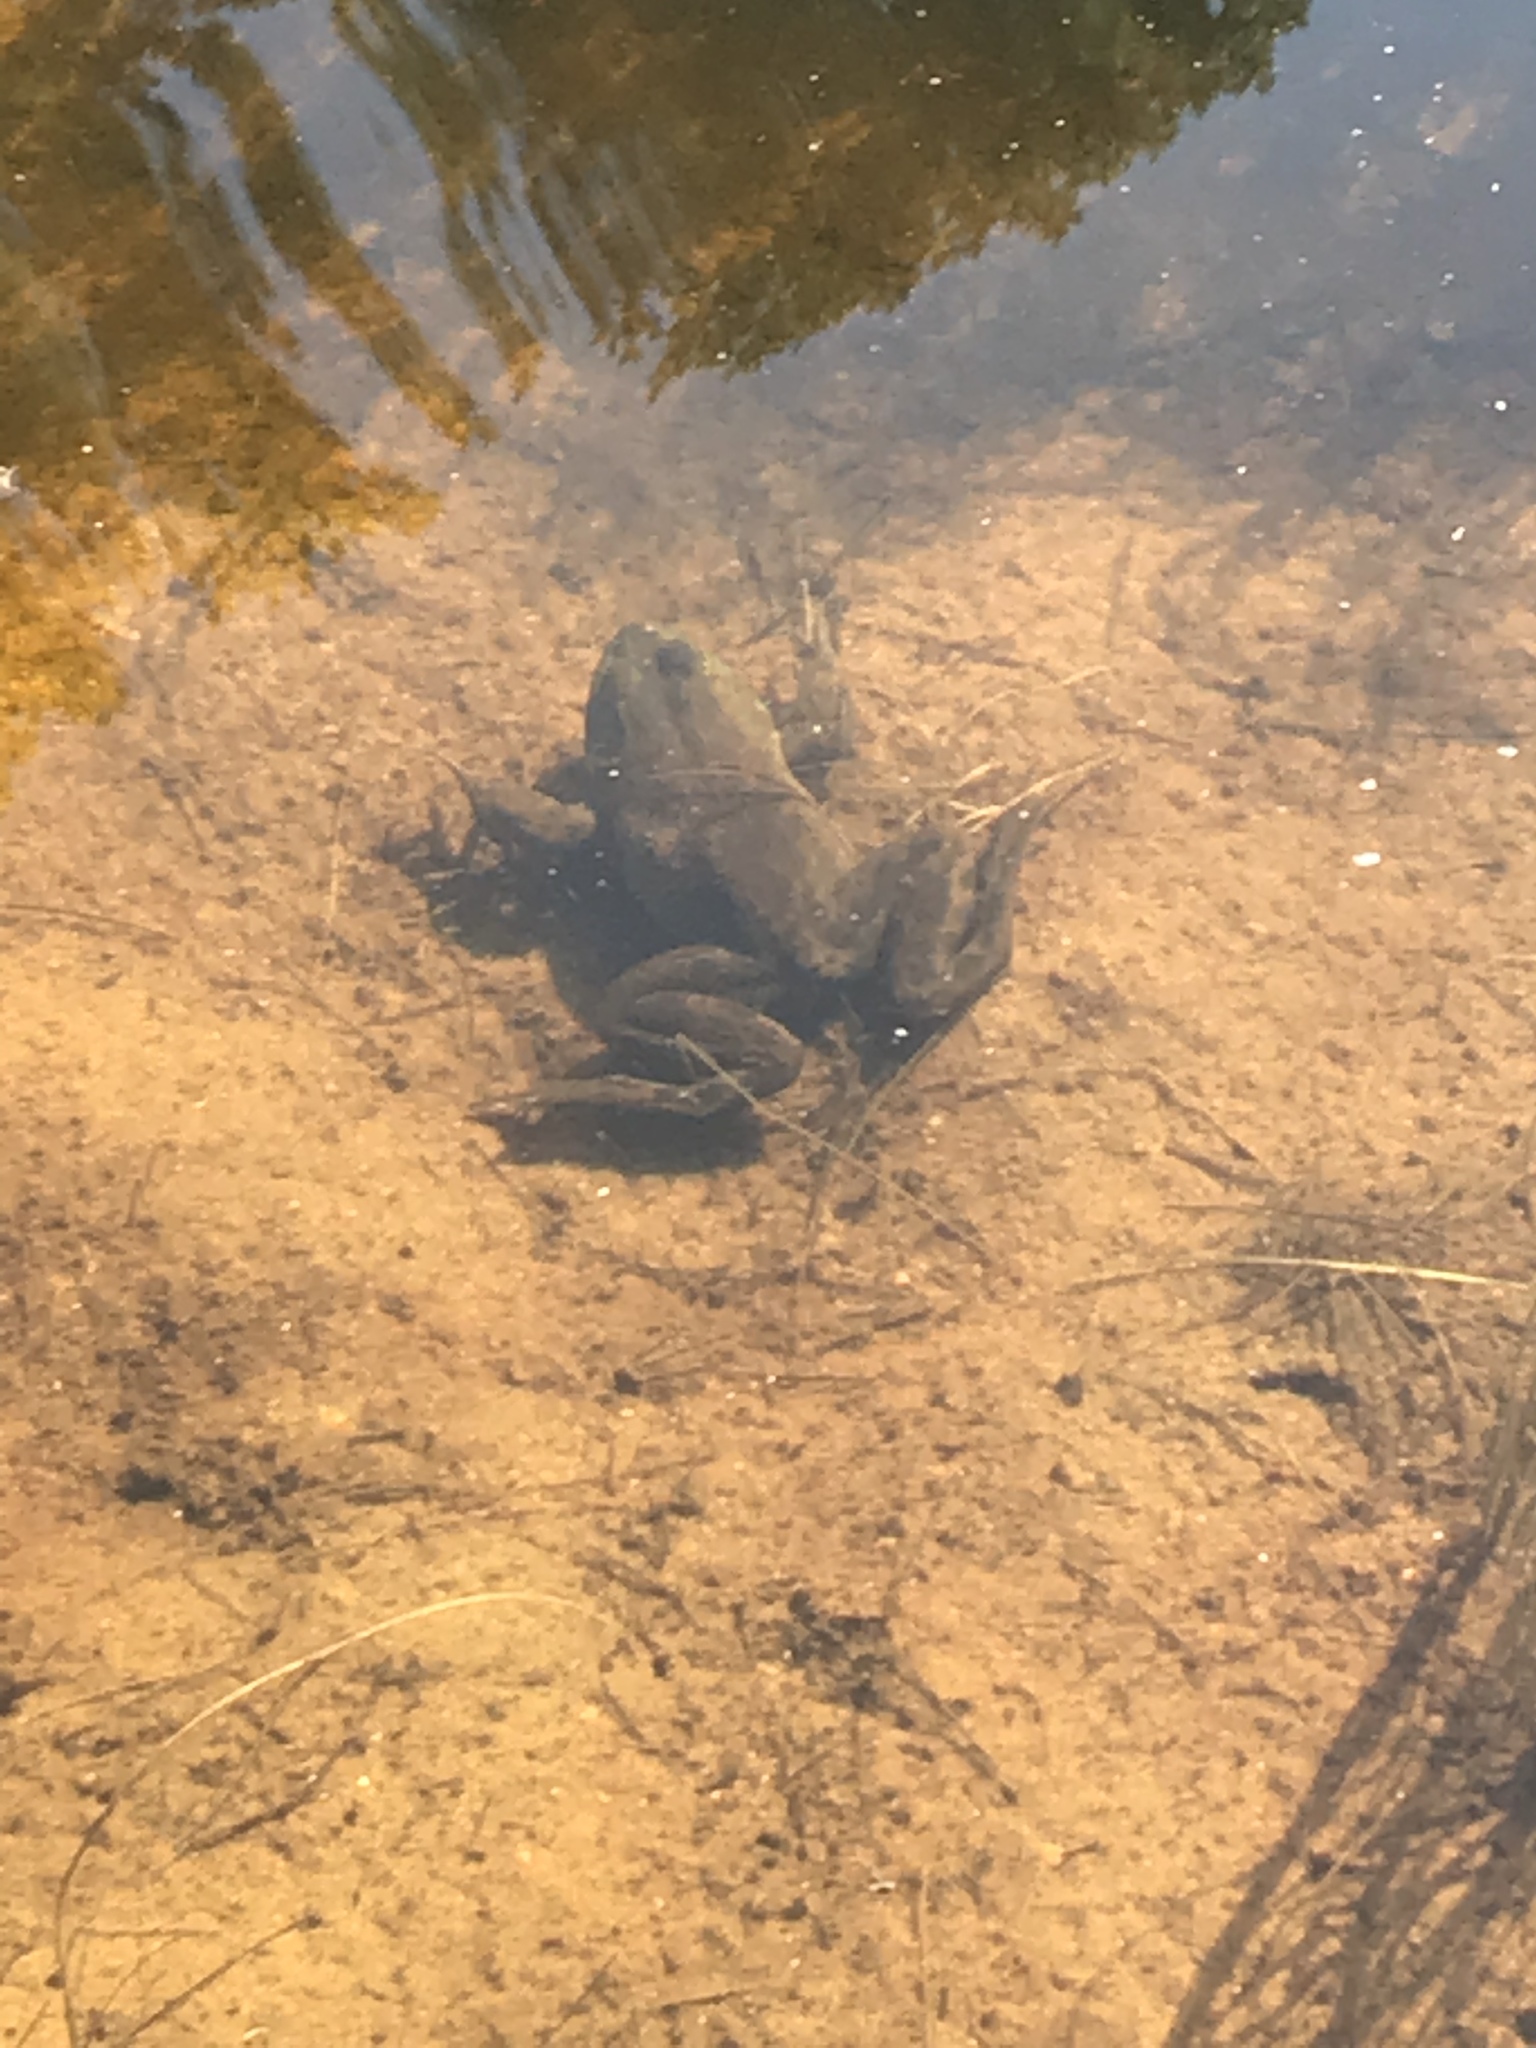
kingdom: Animalia
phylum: Chordata
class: Amphibia
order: Anura
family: Ranidae
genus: Lithobates
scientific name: Lithobates catesbeianus
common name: American bullfrog
